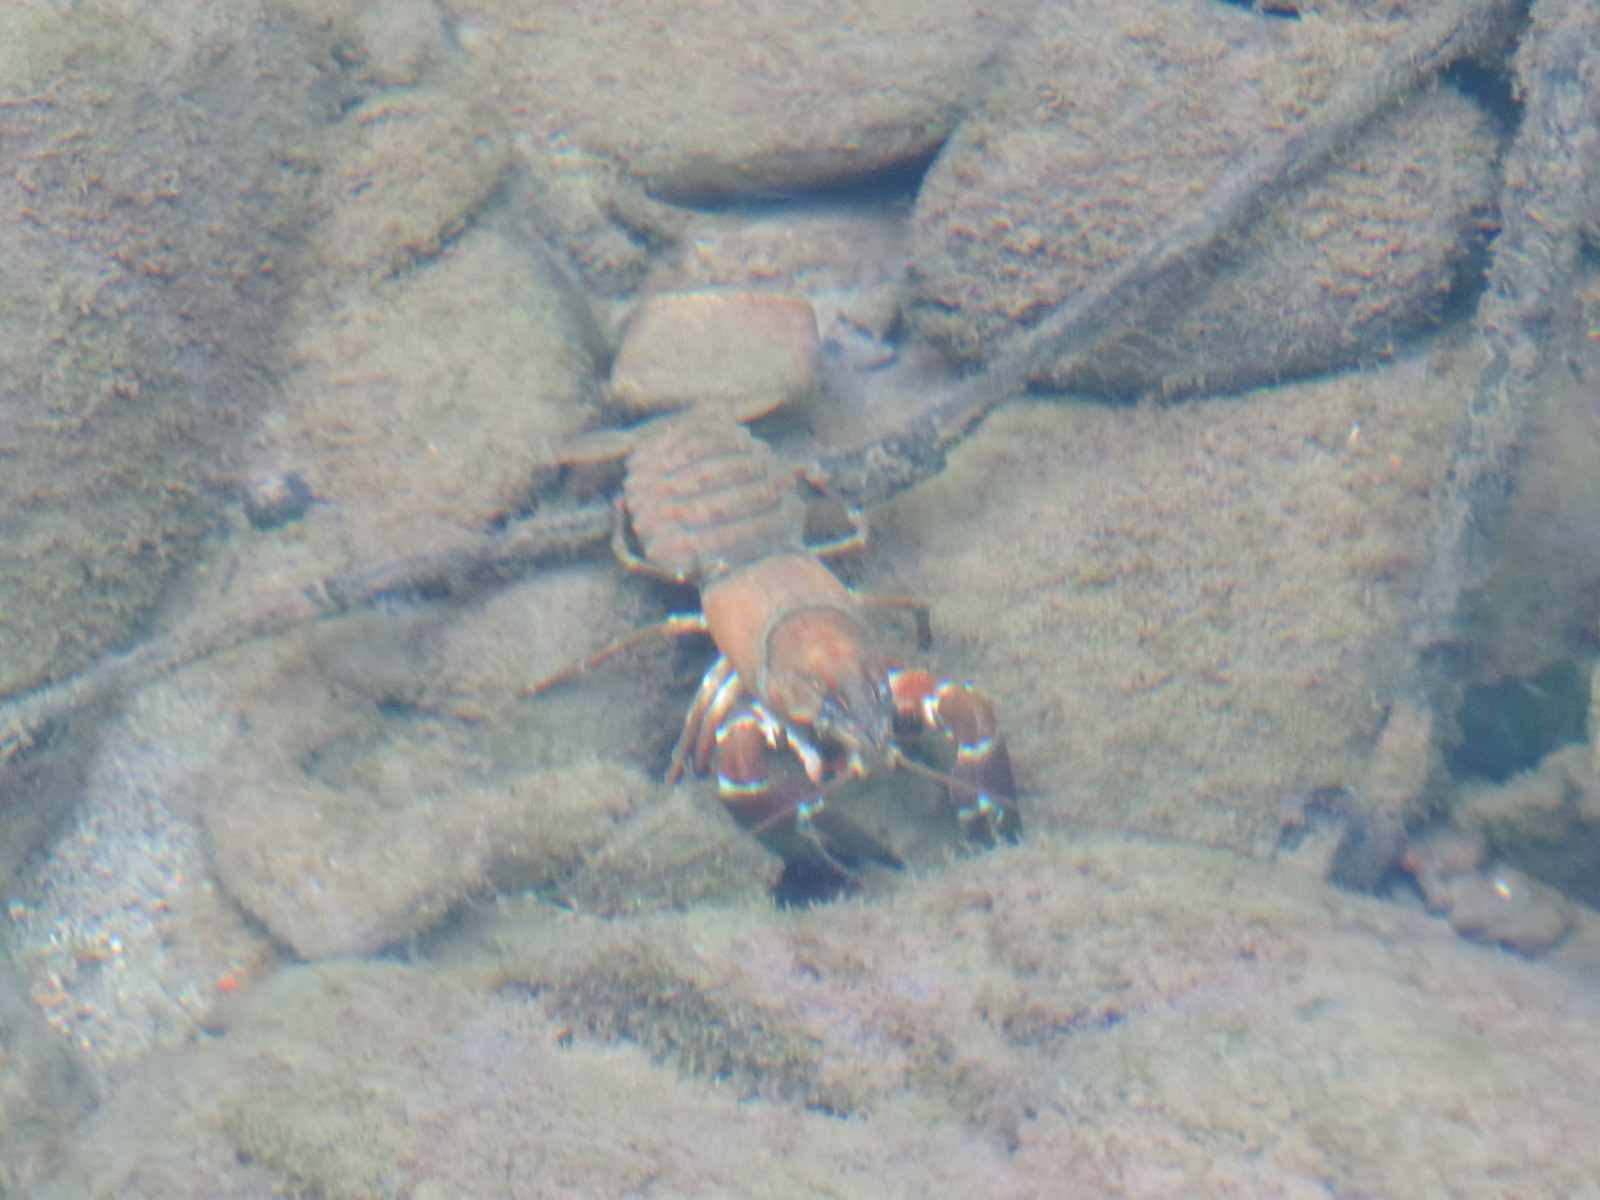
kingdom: Animalia
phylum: Arthropoda
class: Malacostraca
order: Decapoda
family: Astacidae
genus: Pacifastacus
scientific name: Pacifastacus leniusculus
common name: Signal crayfish
